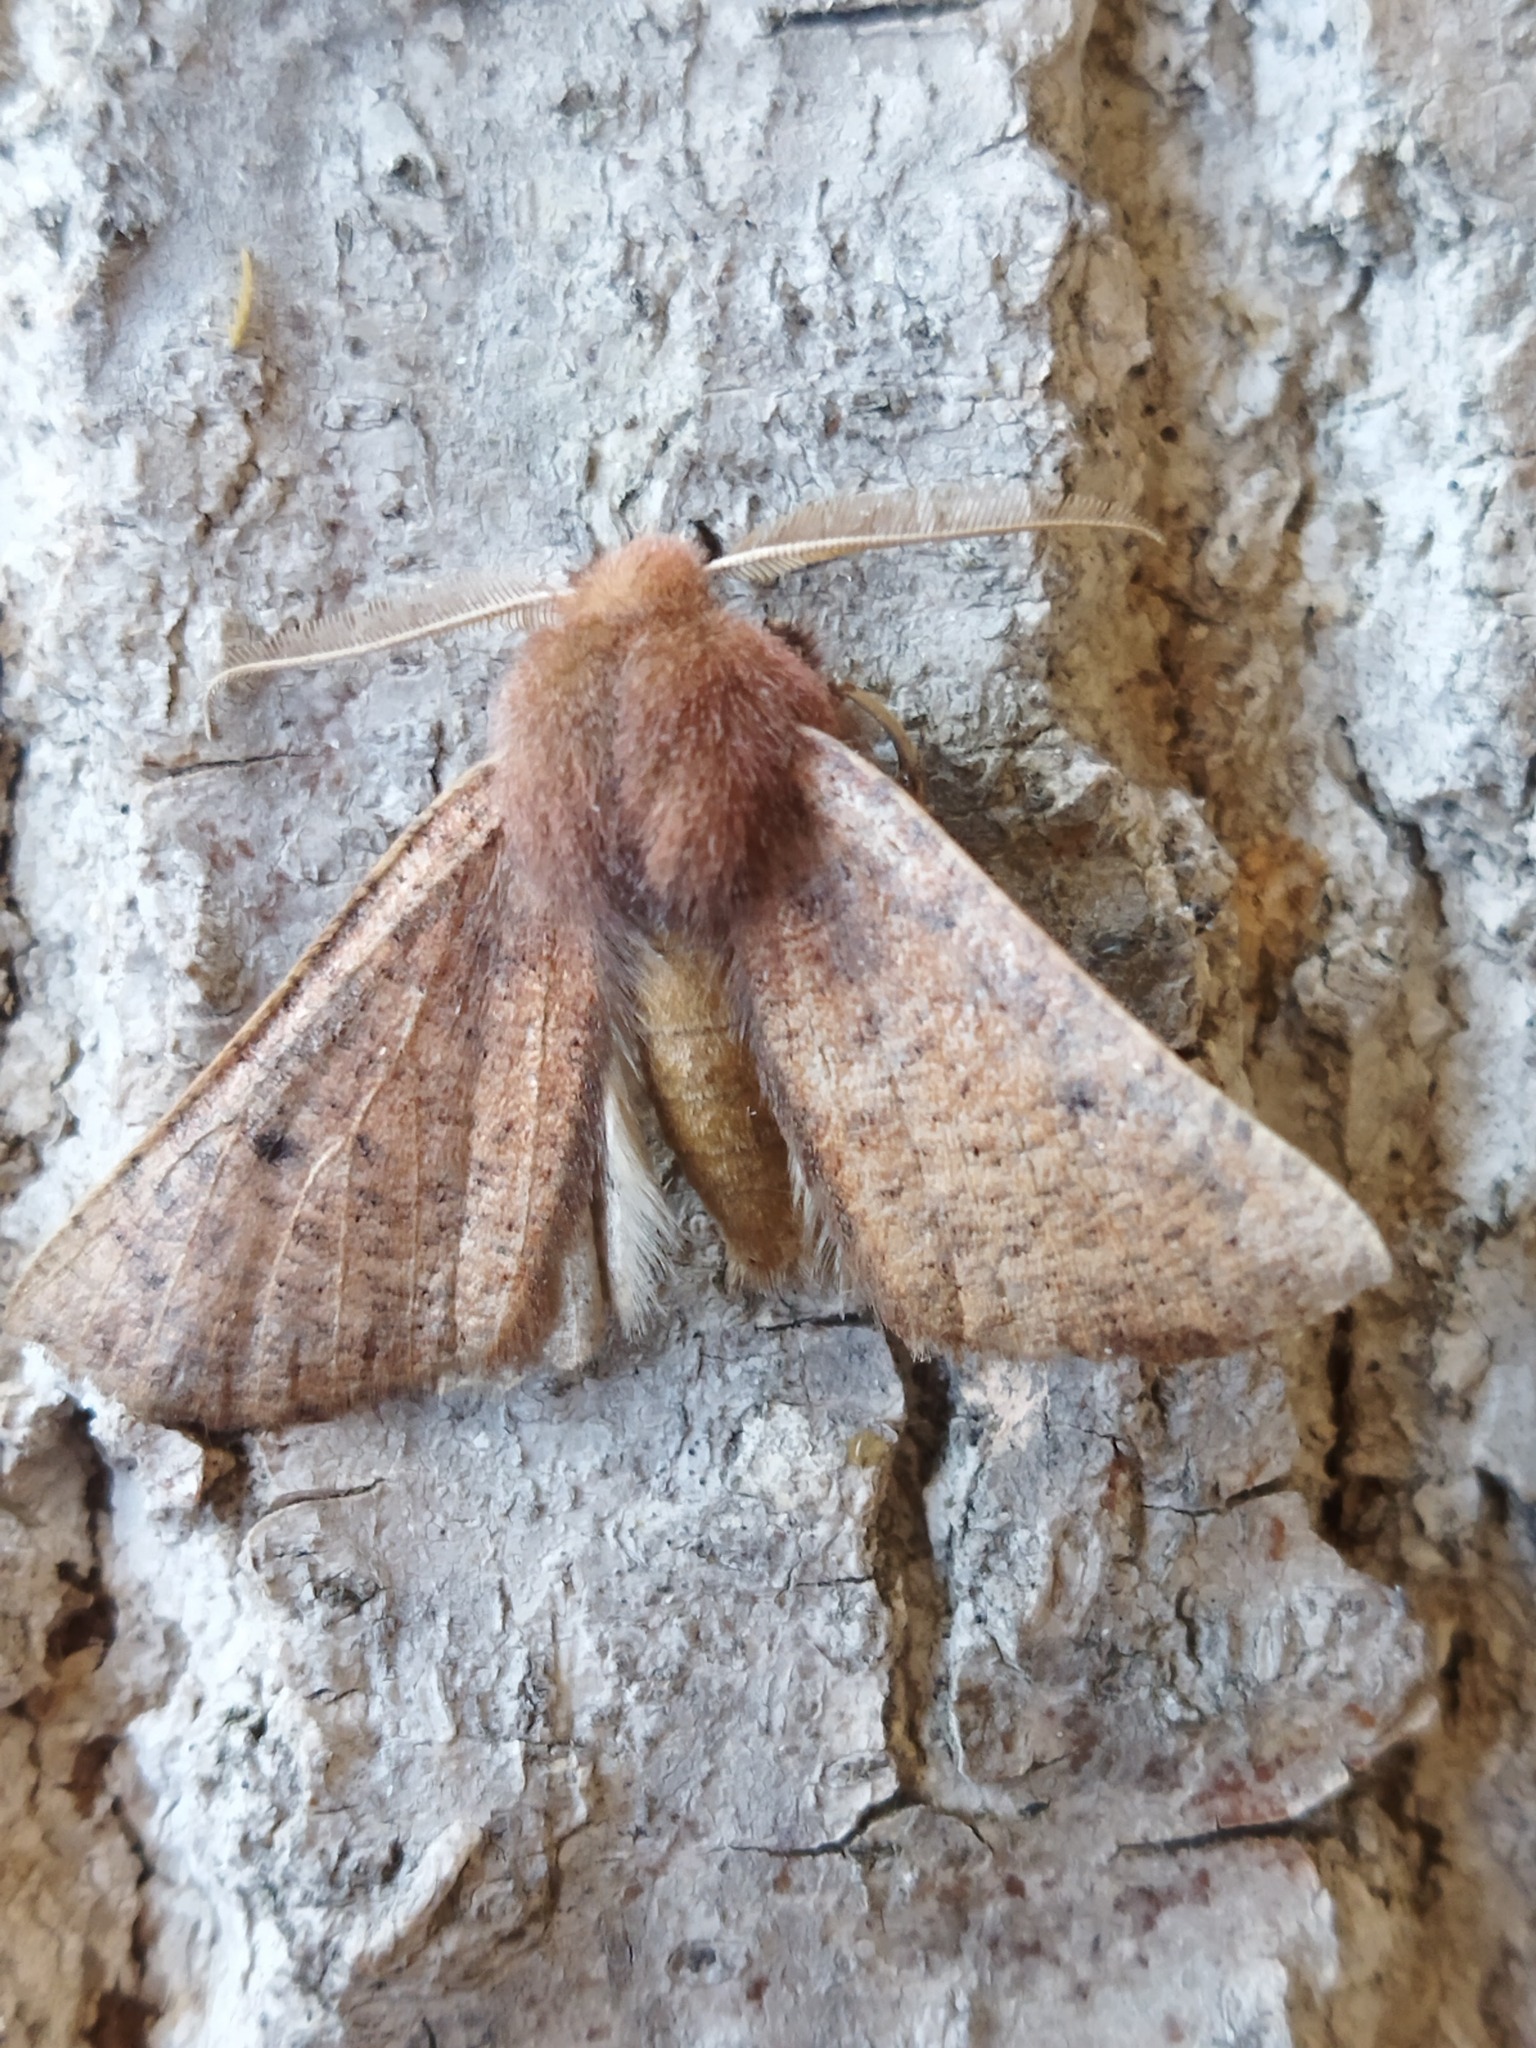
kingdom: Animalia
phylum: Arthropoda
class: Insecta
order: Lepidoptera
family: Geometridae
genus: Dasycorsa
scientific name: Dasycorsa modesta
